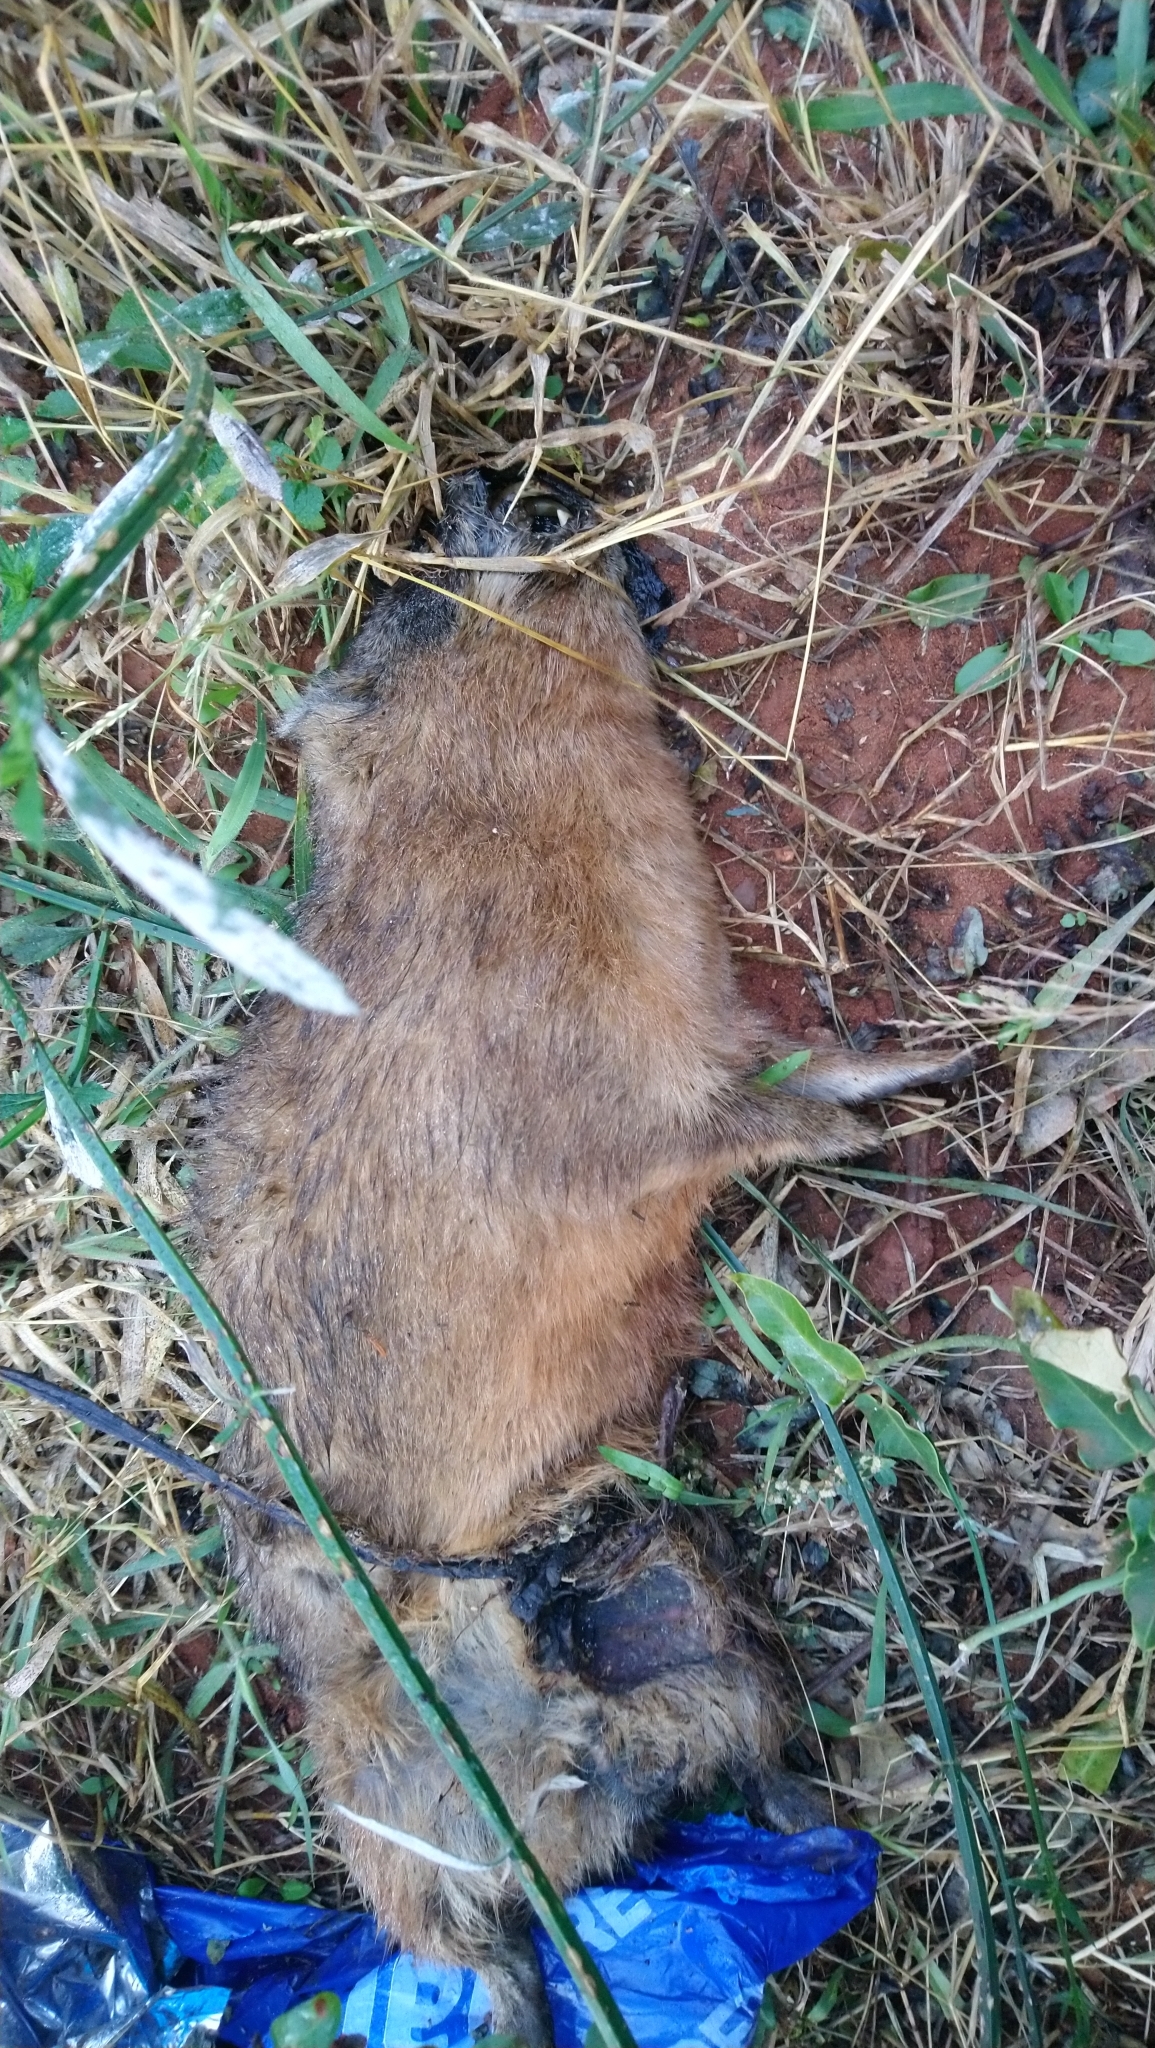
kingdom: Animalia
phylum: Chordata
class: Mammalia
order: Hyracoidea
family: Procaviidae
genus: Procavia
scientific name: Procavia capensis
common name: Rock hyrax
